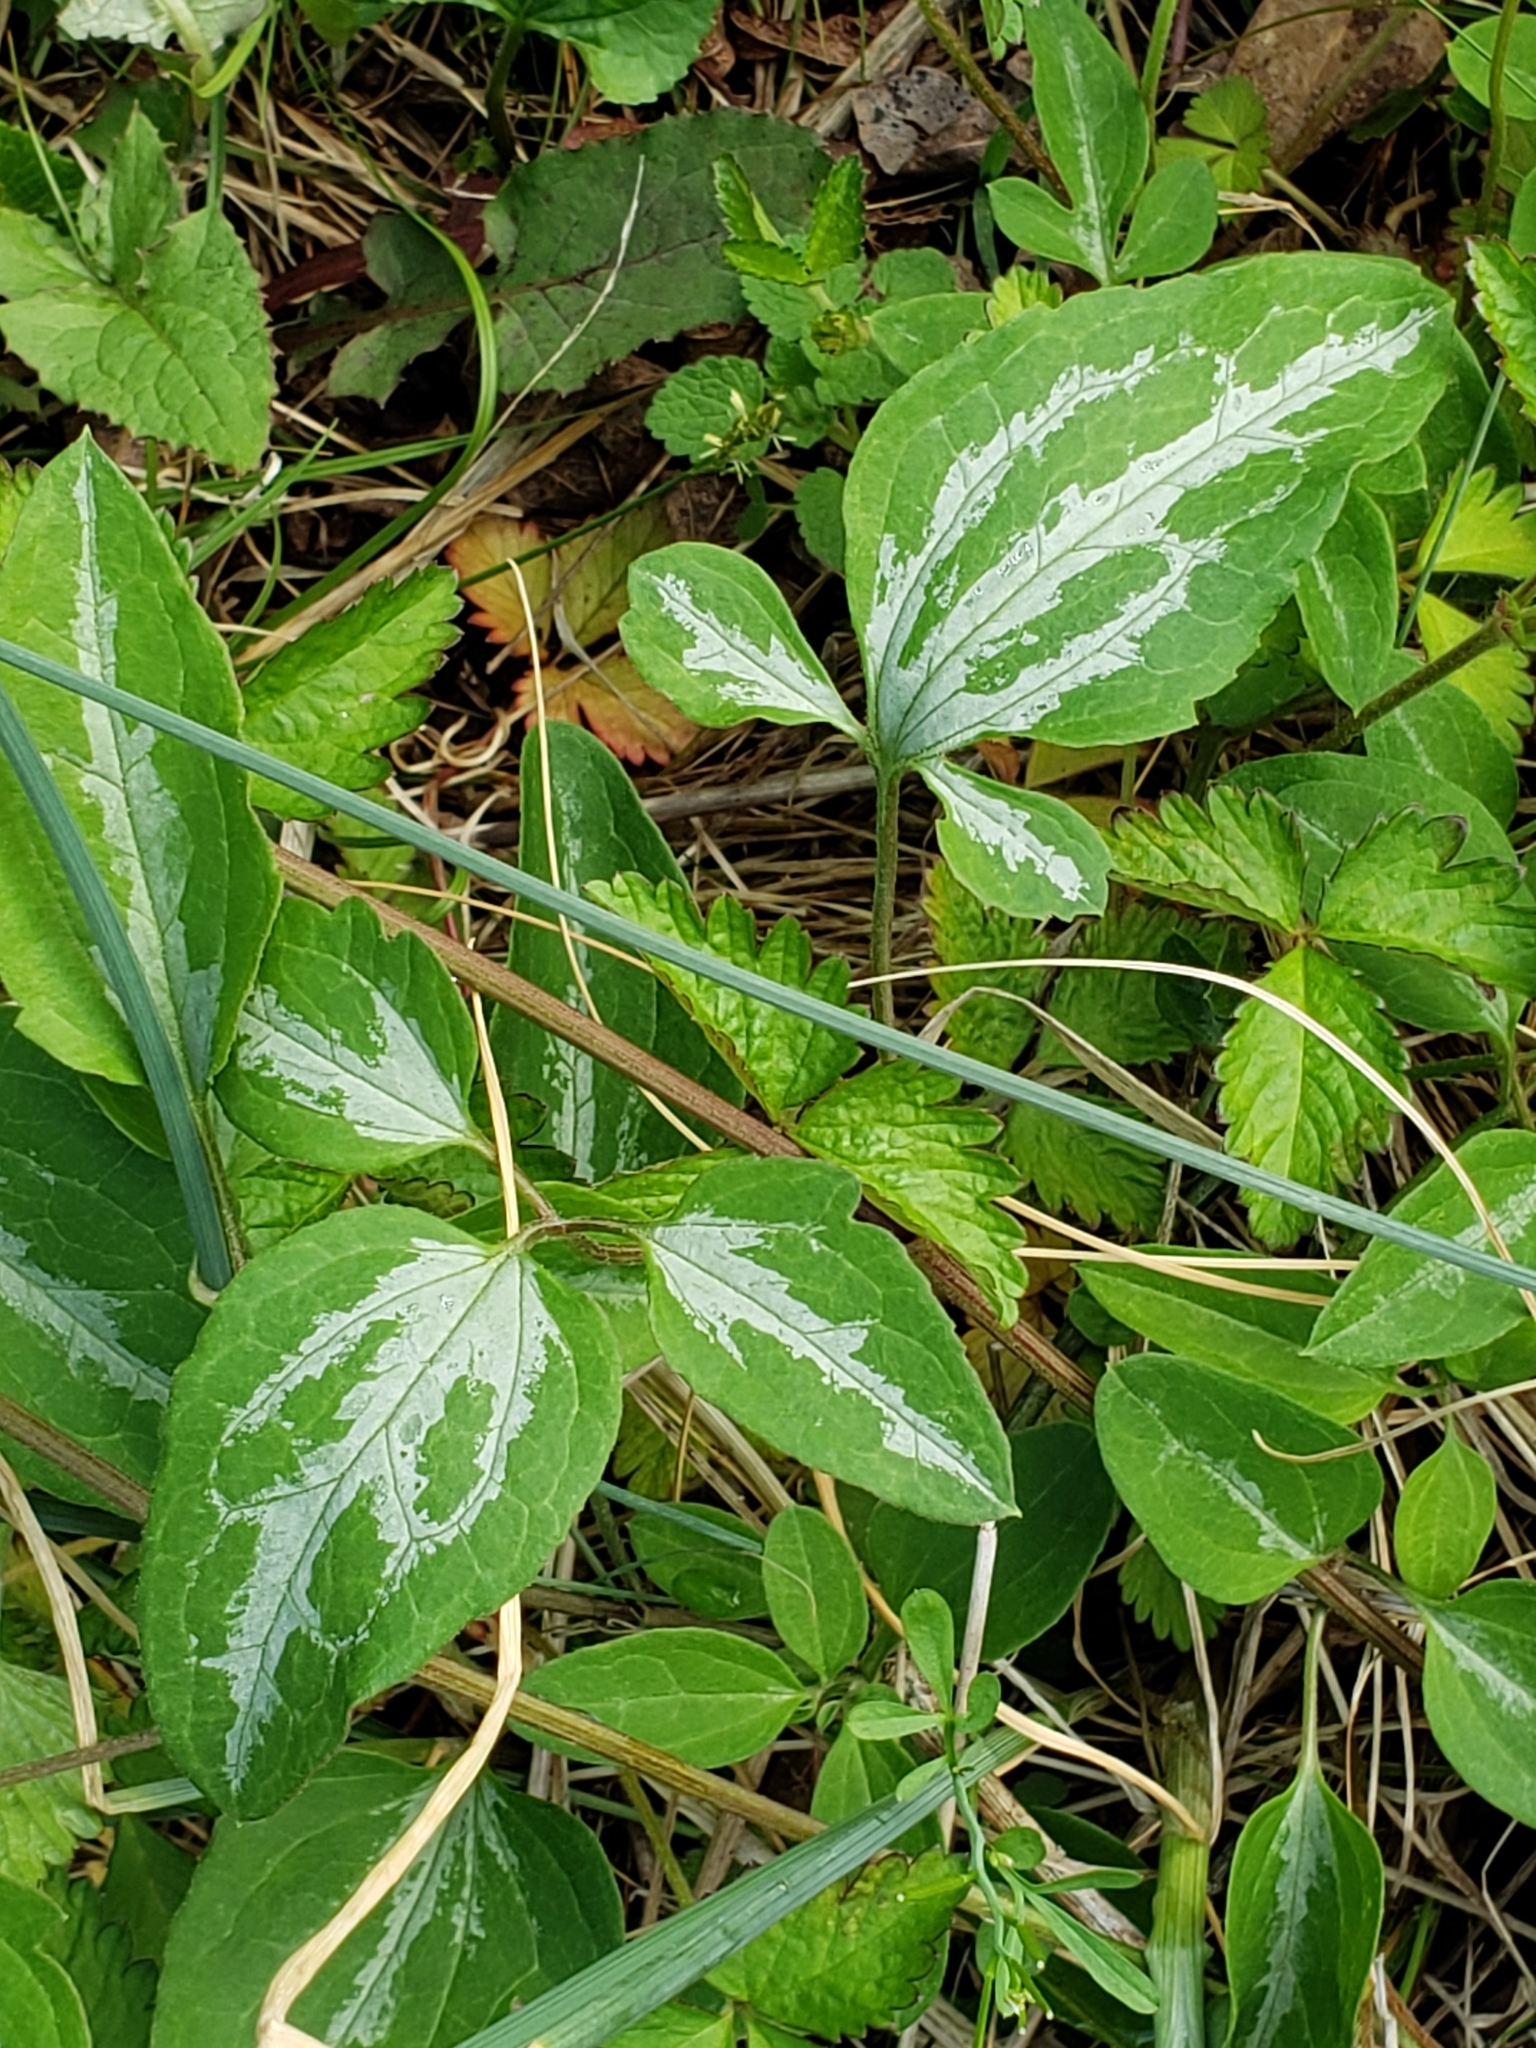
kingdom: Plantae
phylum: Tracheophyta
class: Magnoliopsida
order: Ranunculales
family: Ranunculaceae
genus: Clematis
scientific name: Clematis terniflora
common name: Sweet autumn clematis
